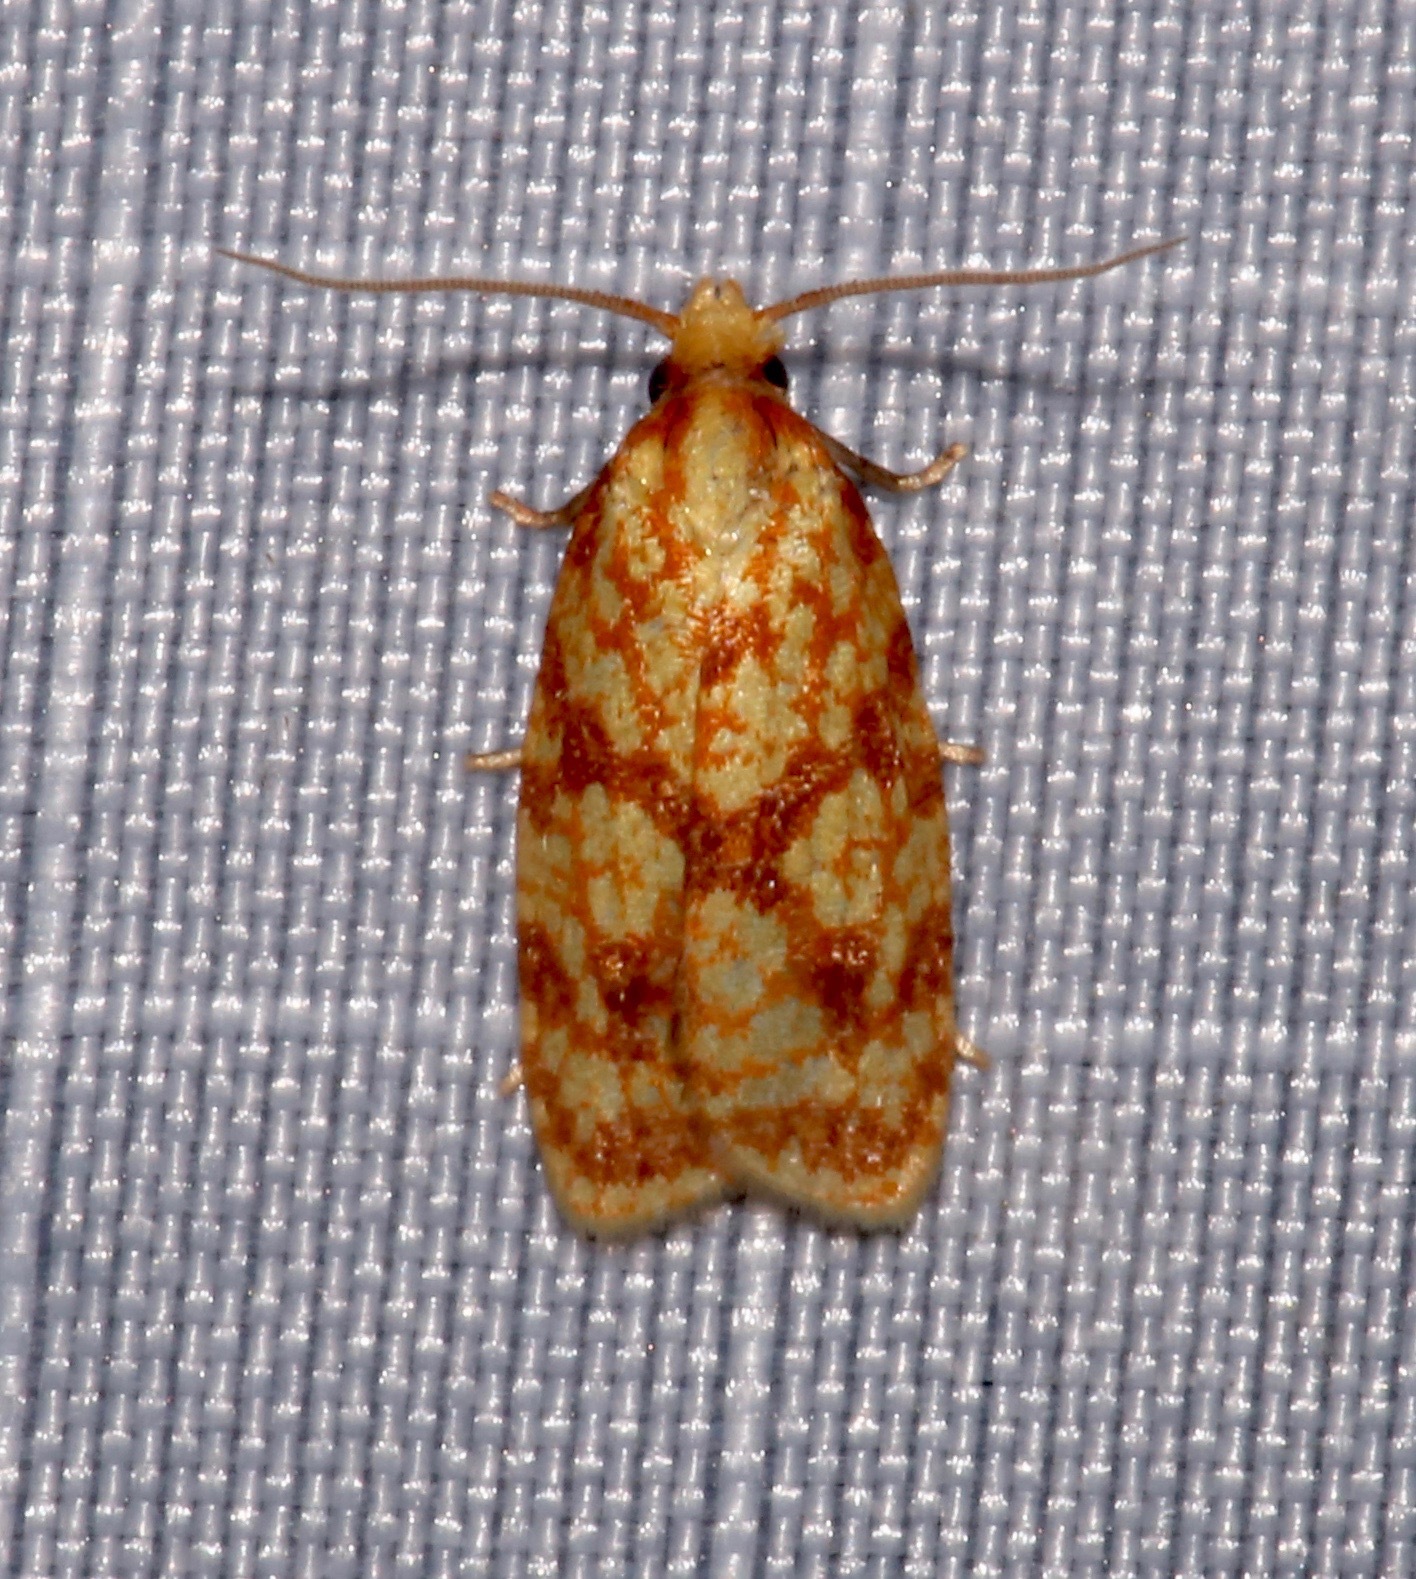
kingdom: Animalia
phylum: Arthropoda
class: Insecta
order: Lepidoptera
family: Tortricidae
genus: Sparganothis
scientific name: Sparganothis sulfureana
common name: Sparganothis fruitworm moth
